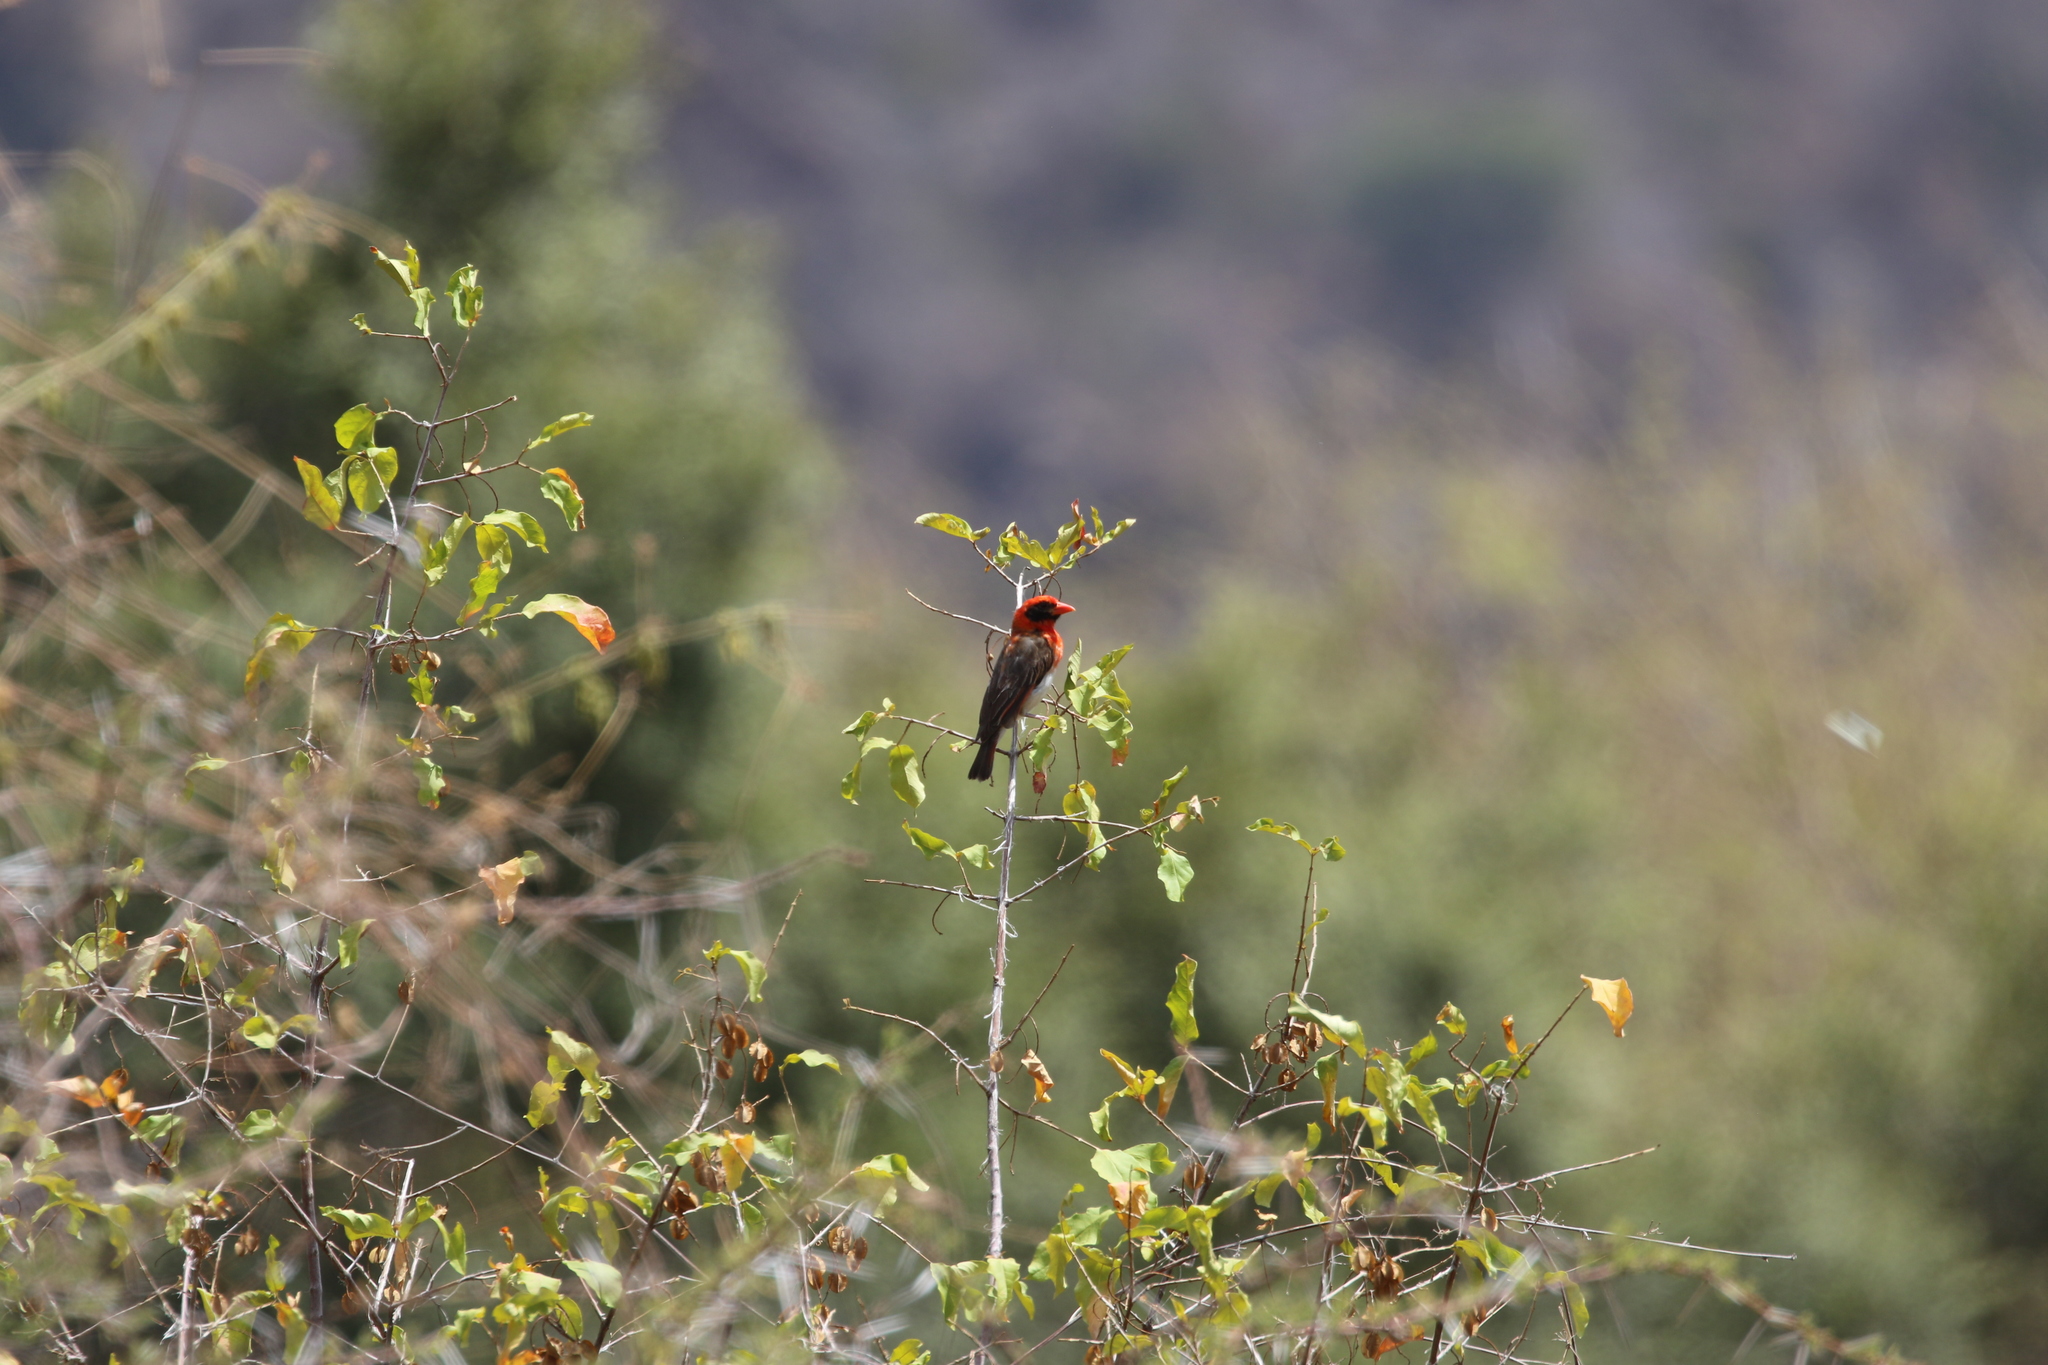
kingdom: Animalia
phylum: Chordata
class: Aves
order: Passeriformes
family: Ploceidae
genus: Anaplectes
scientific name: Anaplectes rubriceps
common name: Red-headed weaver
